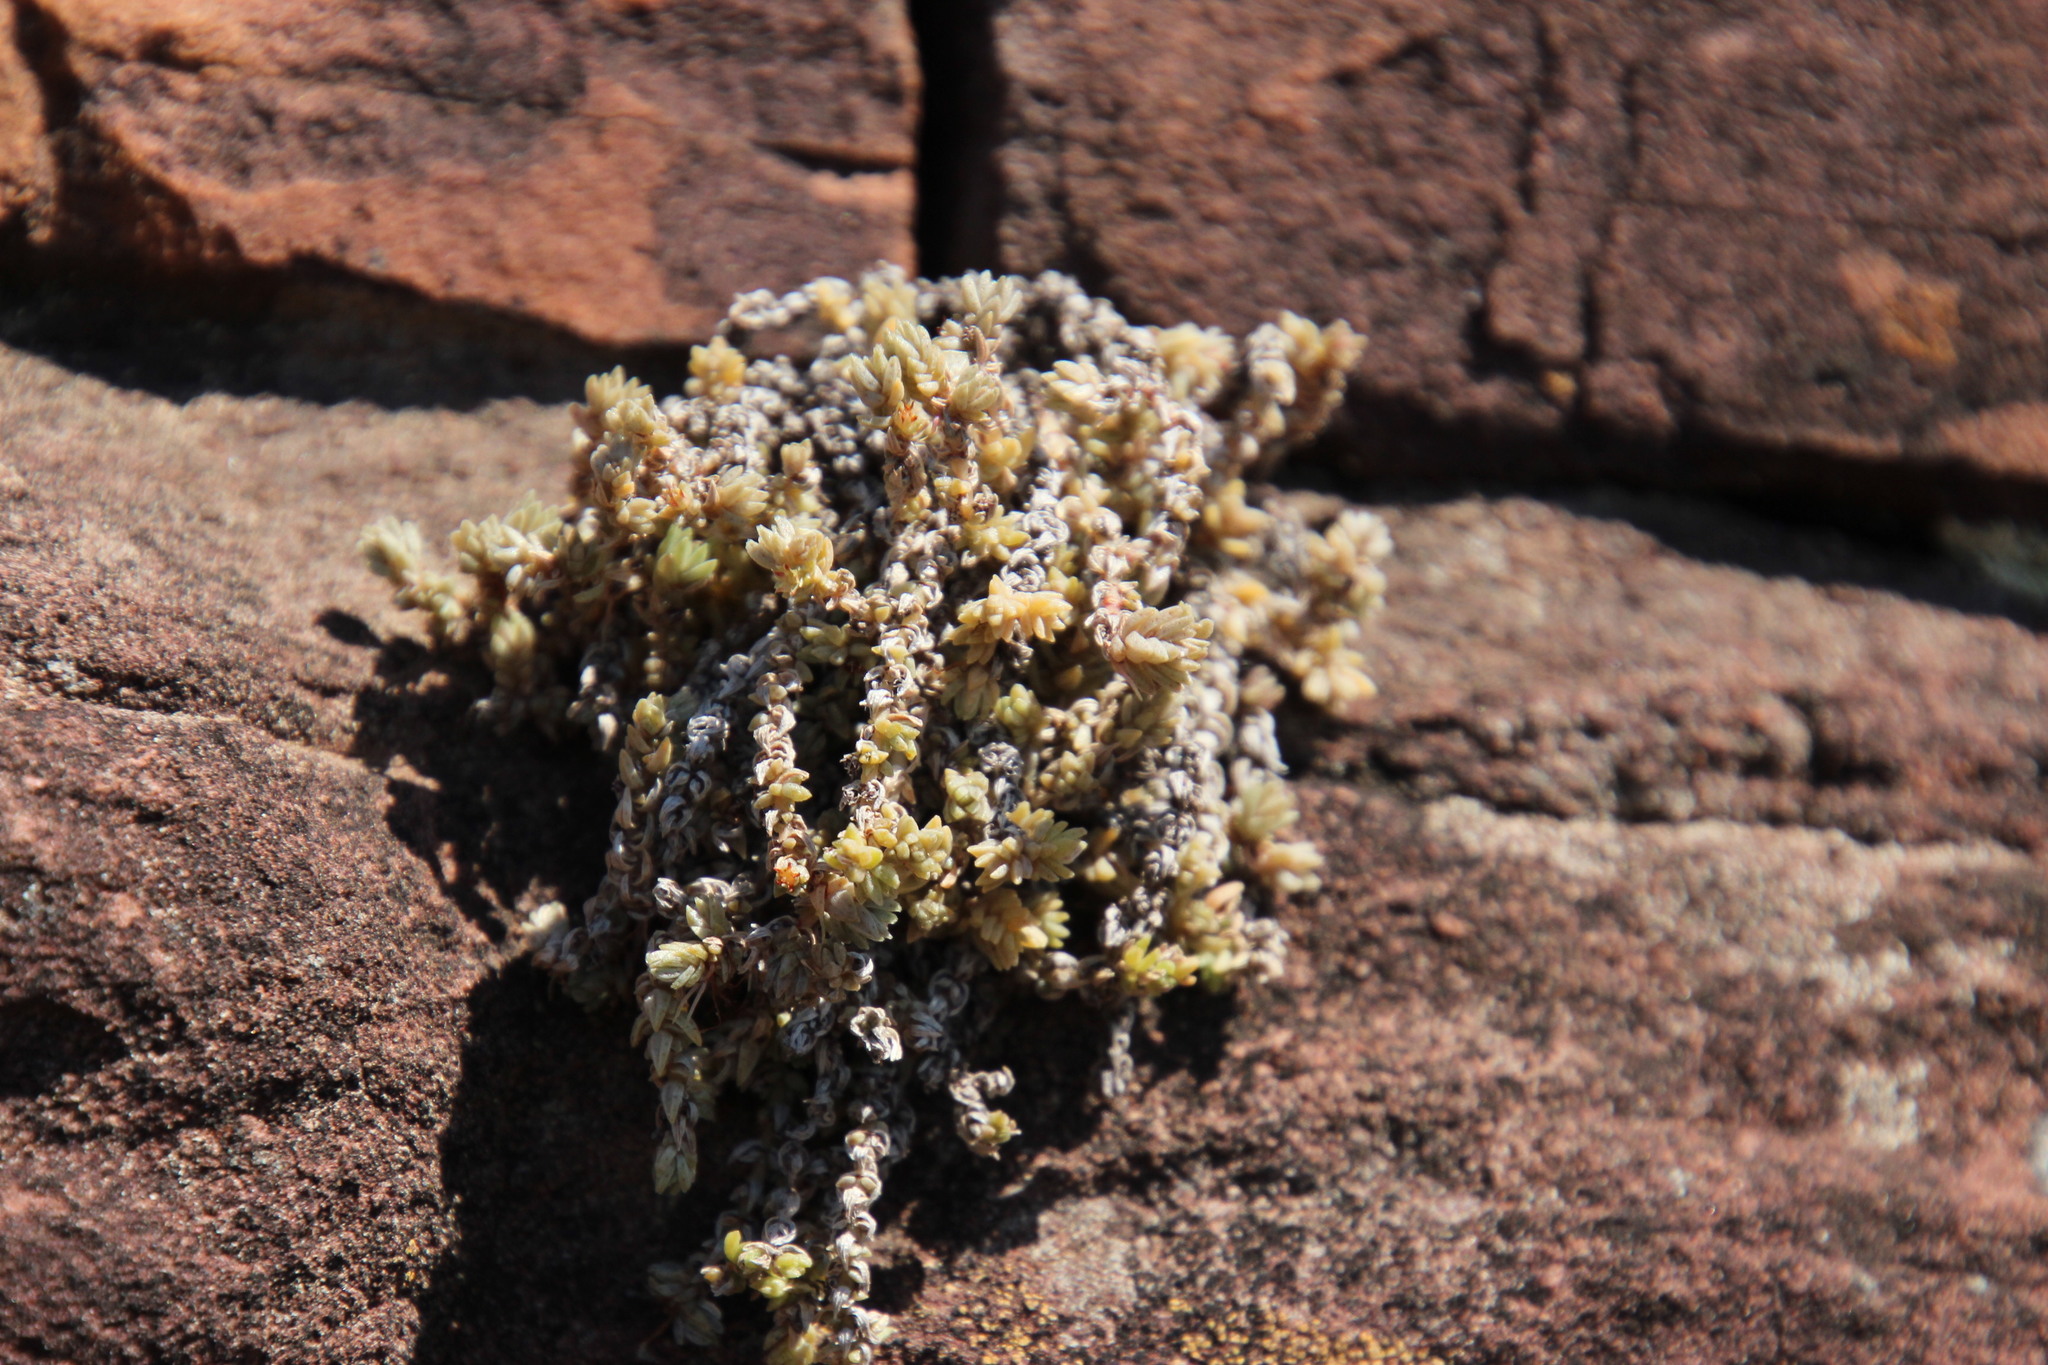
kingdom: Plantae
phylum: Tracheophyta
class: Magnoliopsida
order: Saxifragales
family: Crassulaceae
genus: Crassula
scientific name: Crassula lanceolata
